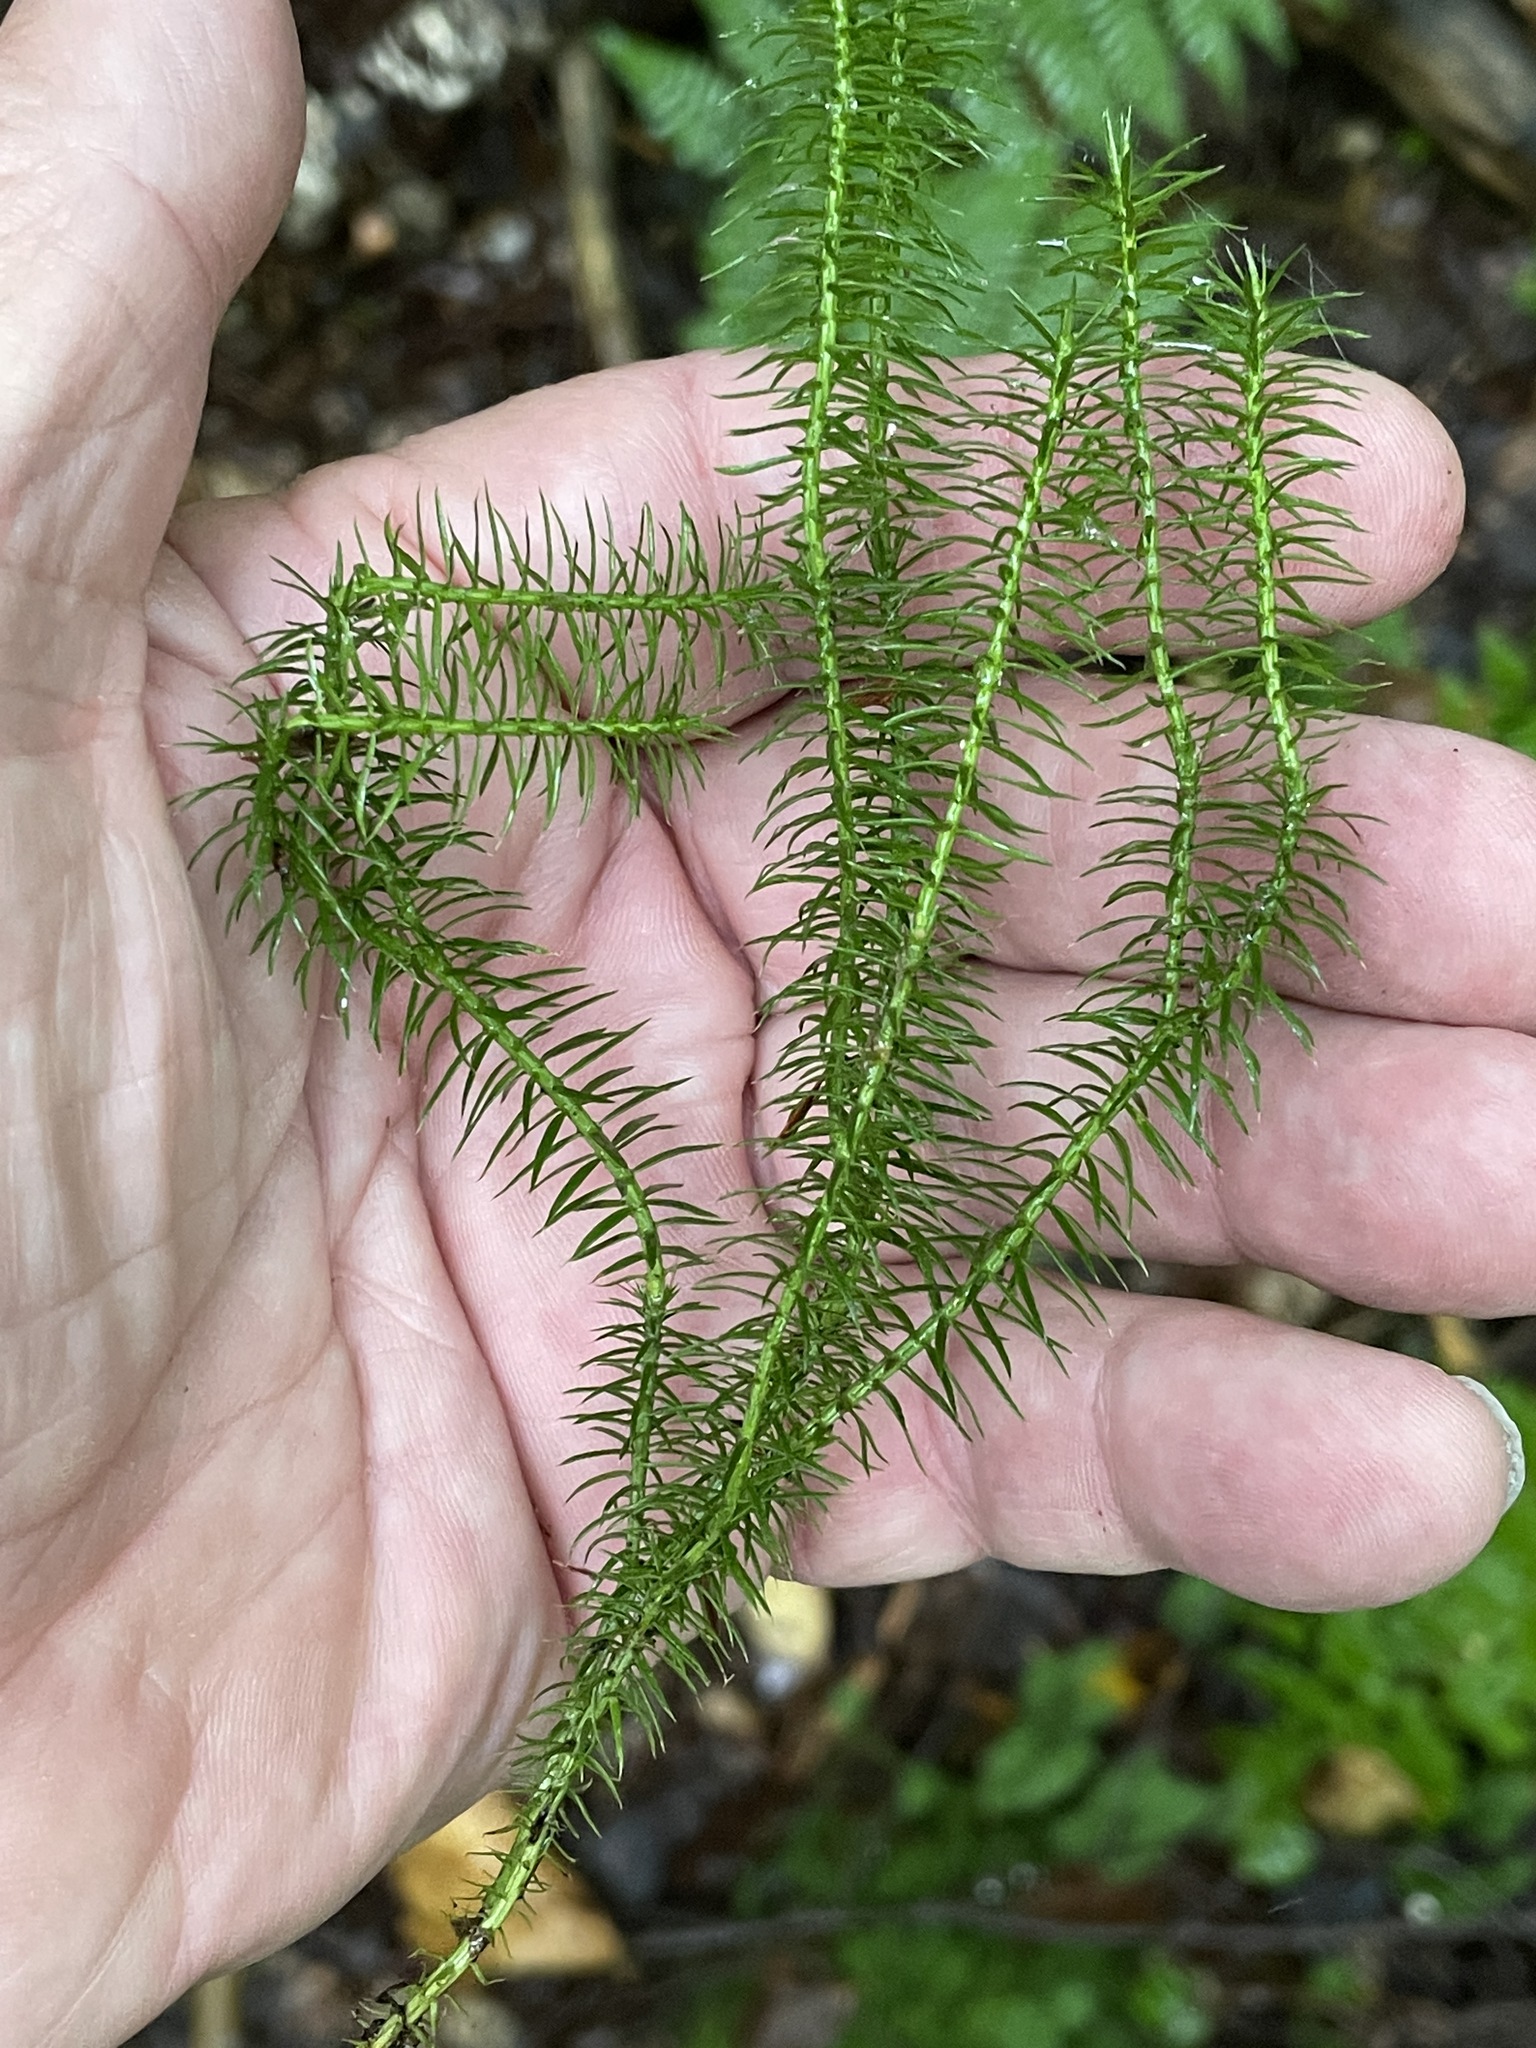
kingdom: Plantae
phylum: Tracheophyta
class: Lycopodiopsida
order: Lycopodiales
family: Lycopodiaceae
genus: Spinulum
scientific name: Spinulum annotinum
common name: Interrupted club-moss
